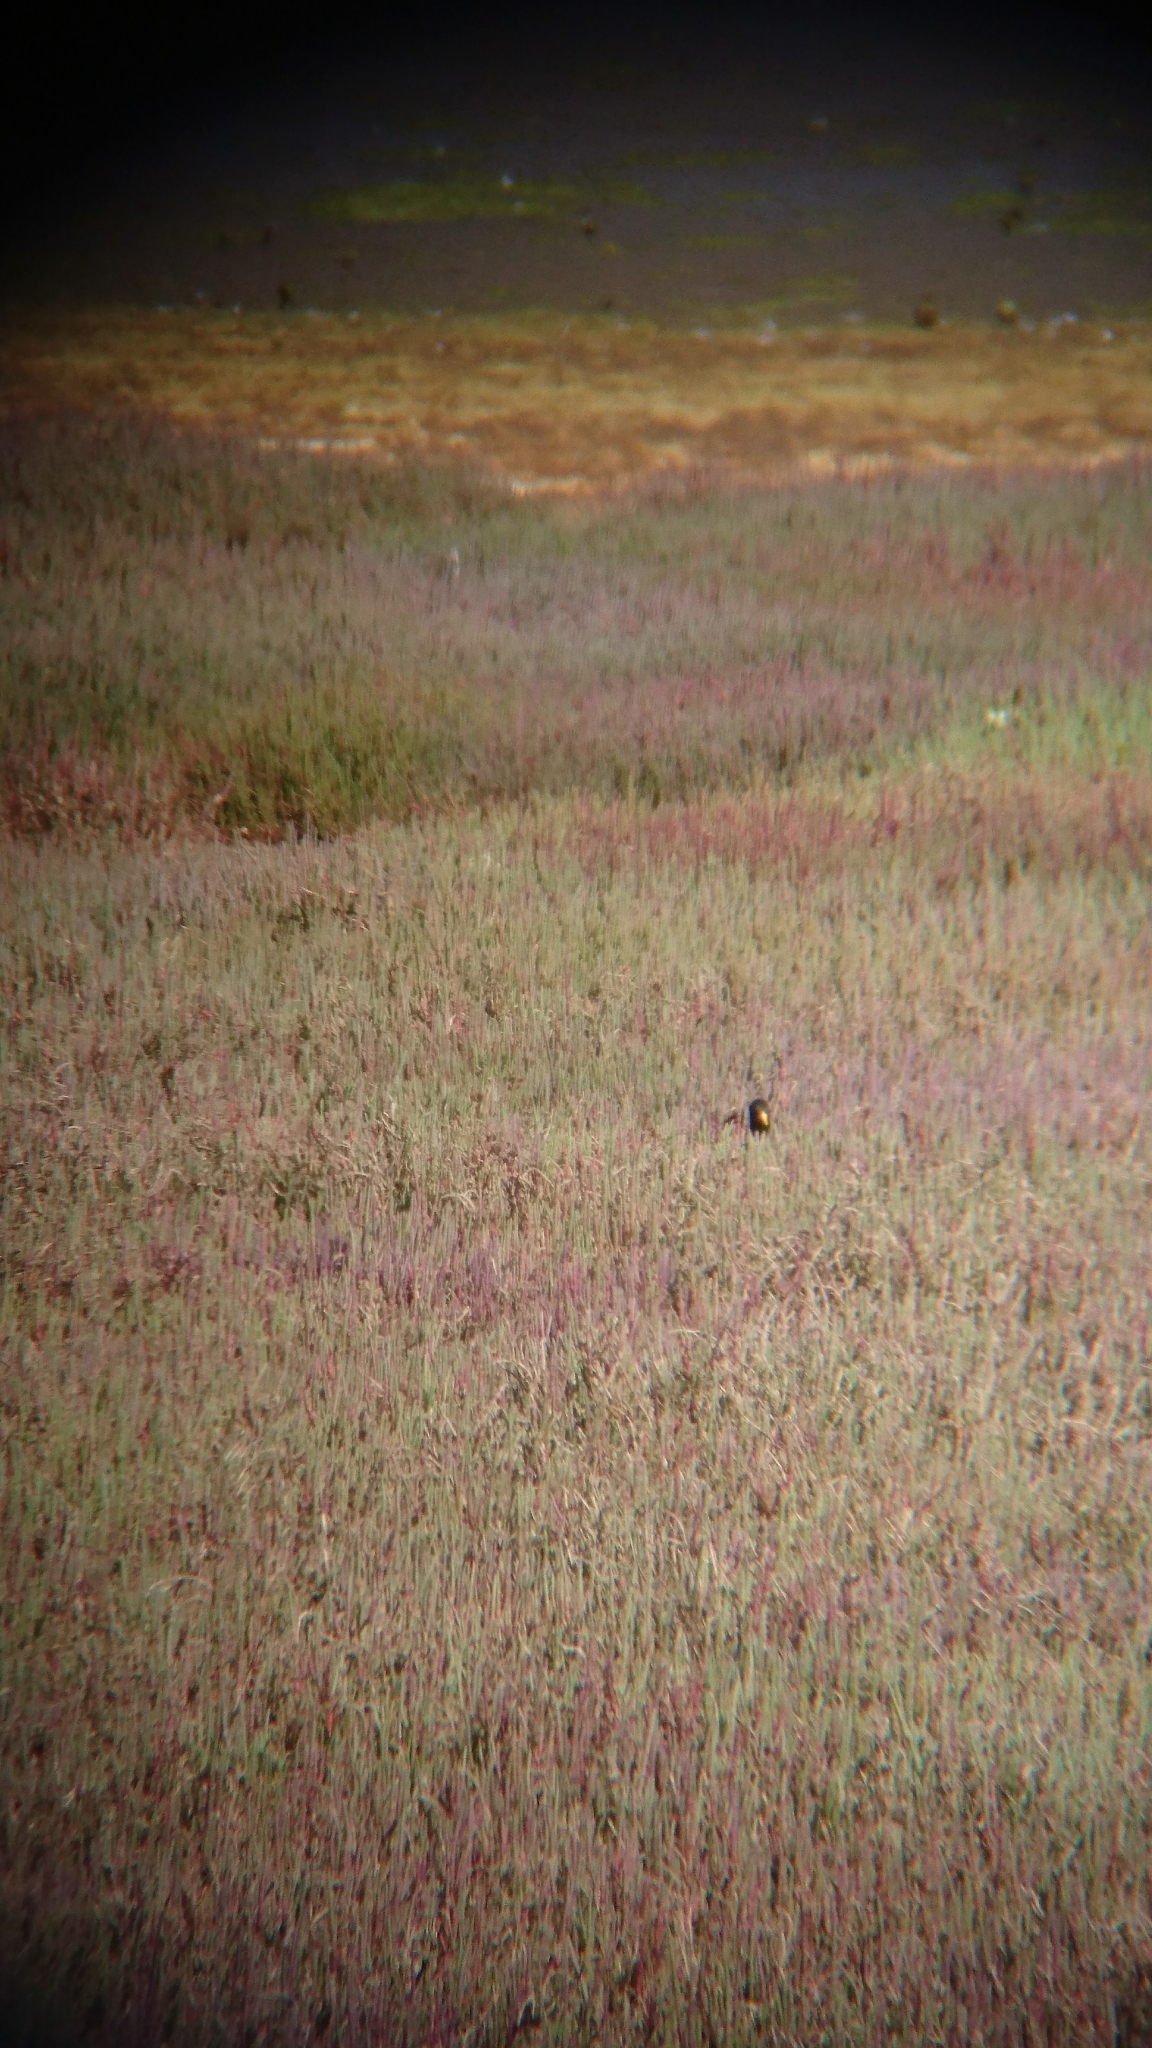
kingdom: Animalia
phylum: Chordata
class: Aves
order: Passeriformes
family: Sturnidae
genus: Sturnus
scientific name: Sturnus vulgaris
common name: Common starling
